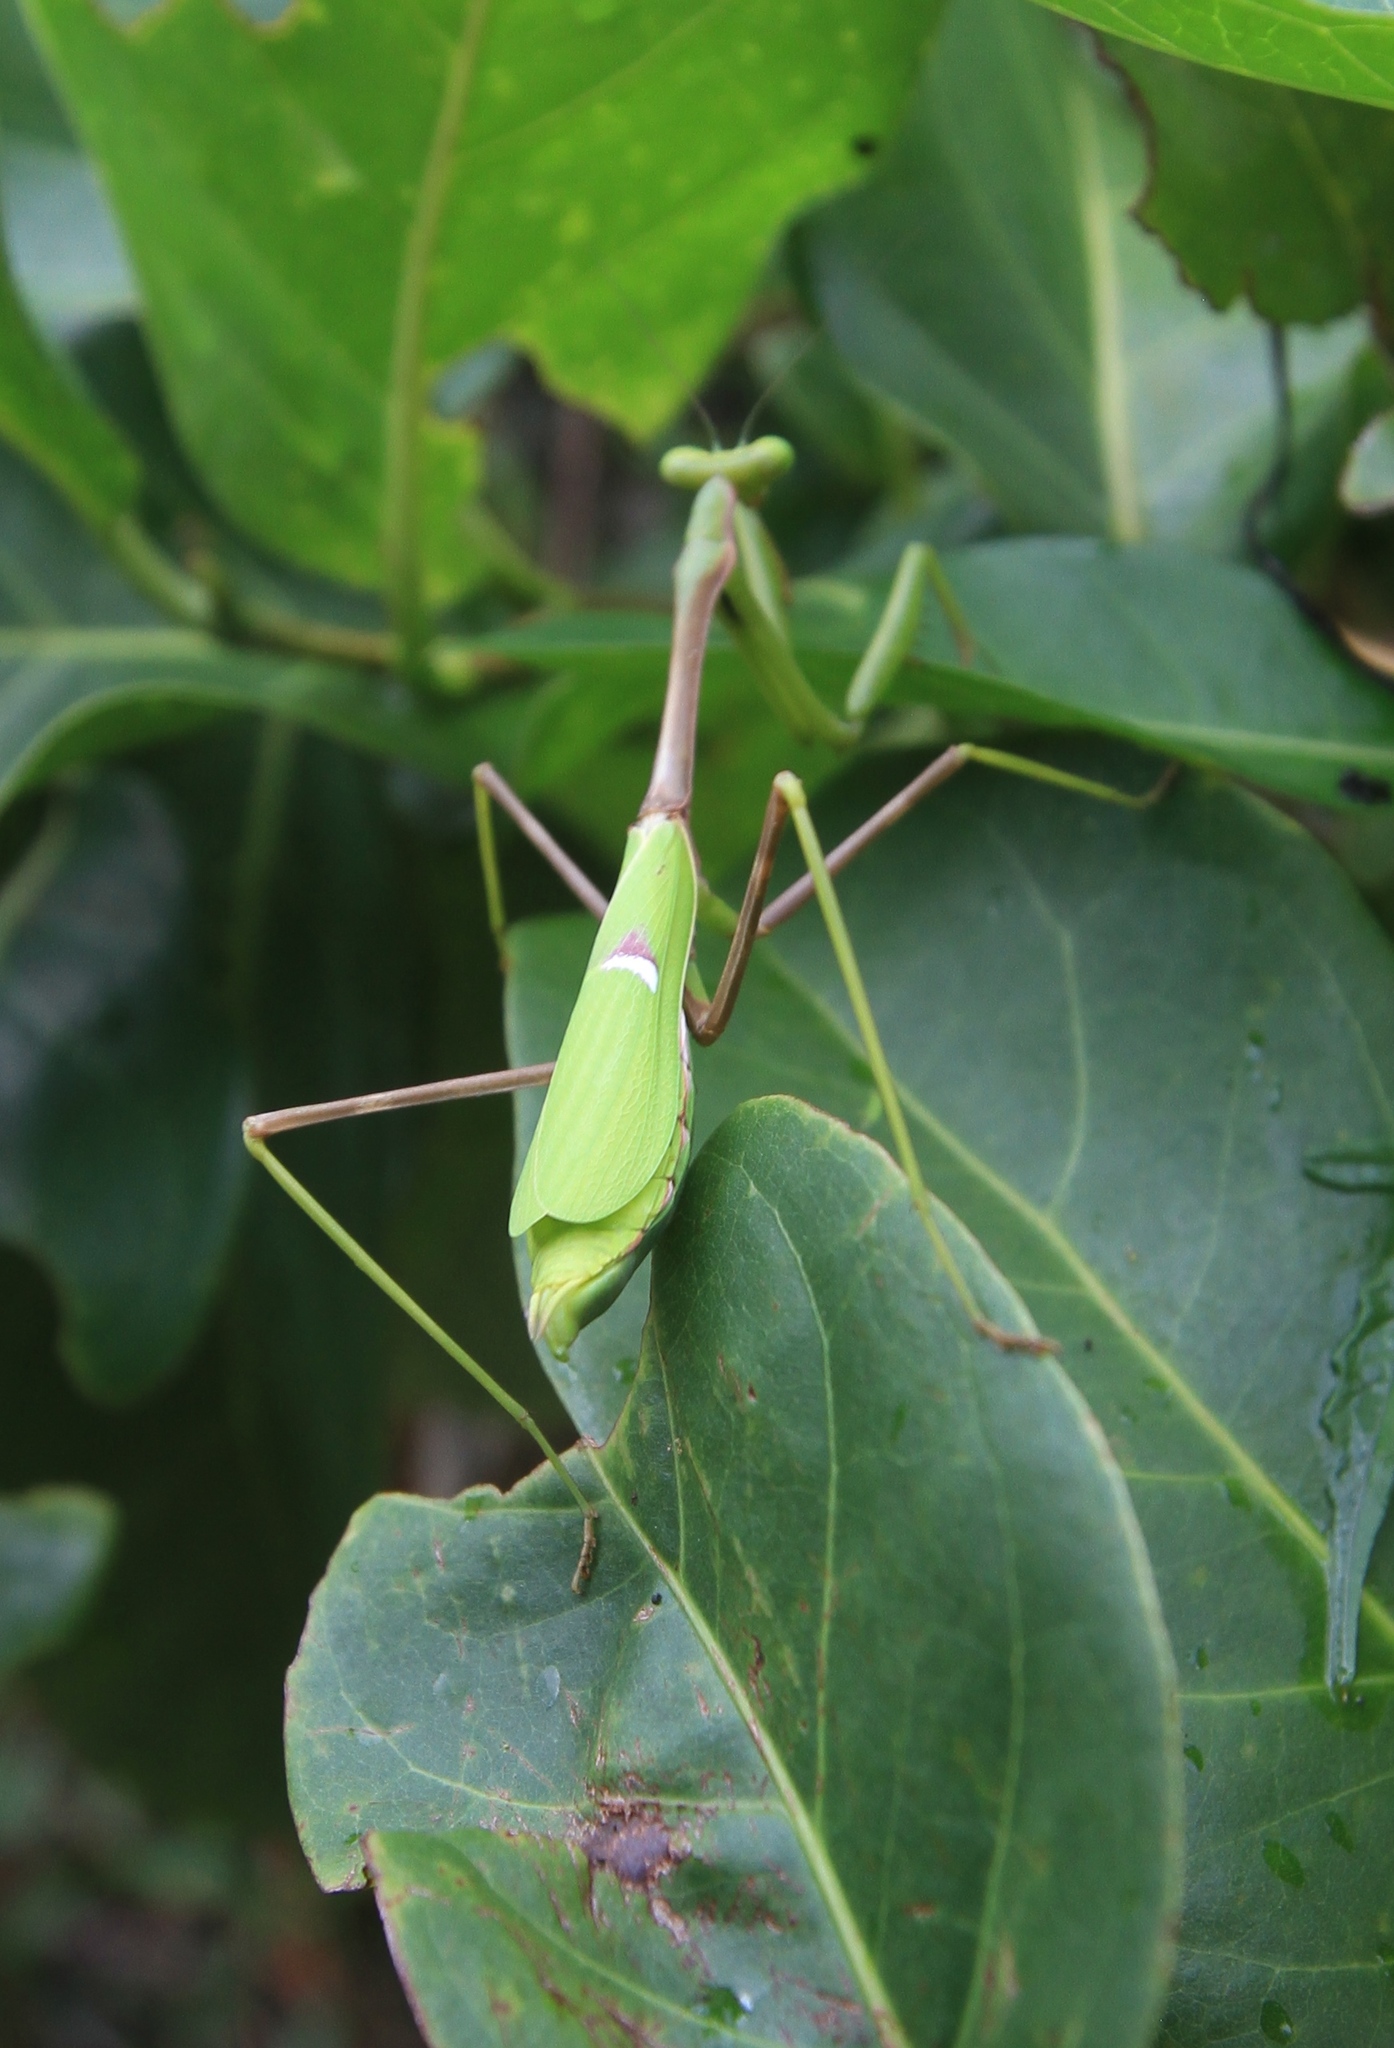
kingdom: Animalia
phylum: Arthropoda
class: Insecta
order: Mantodea
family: Mantidae
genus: Stagmomantis
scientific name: Stagmomantis domingensis
